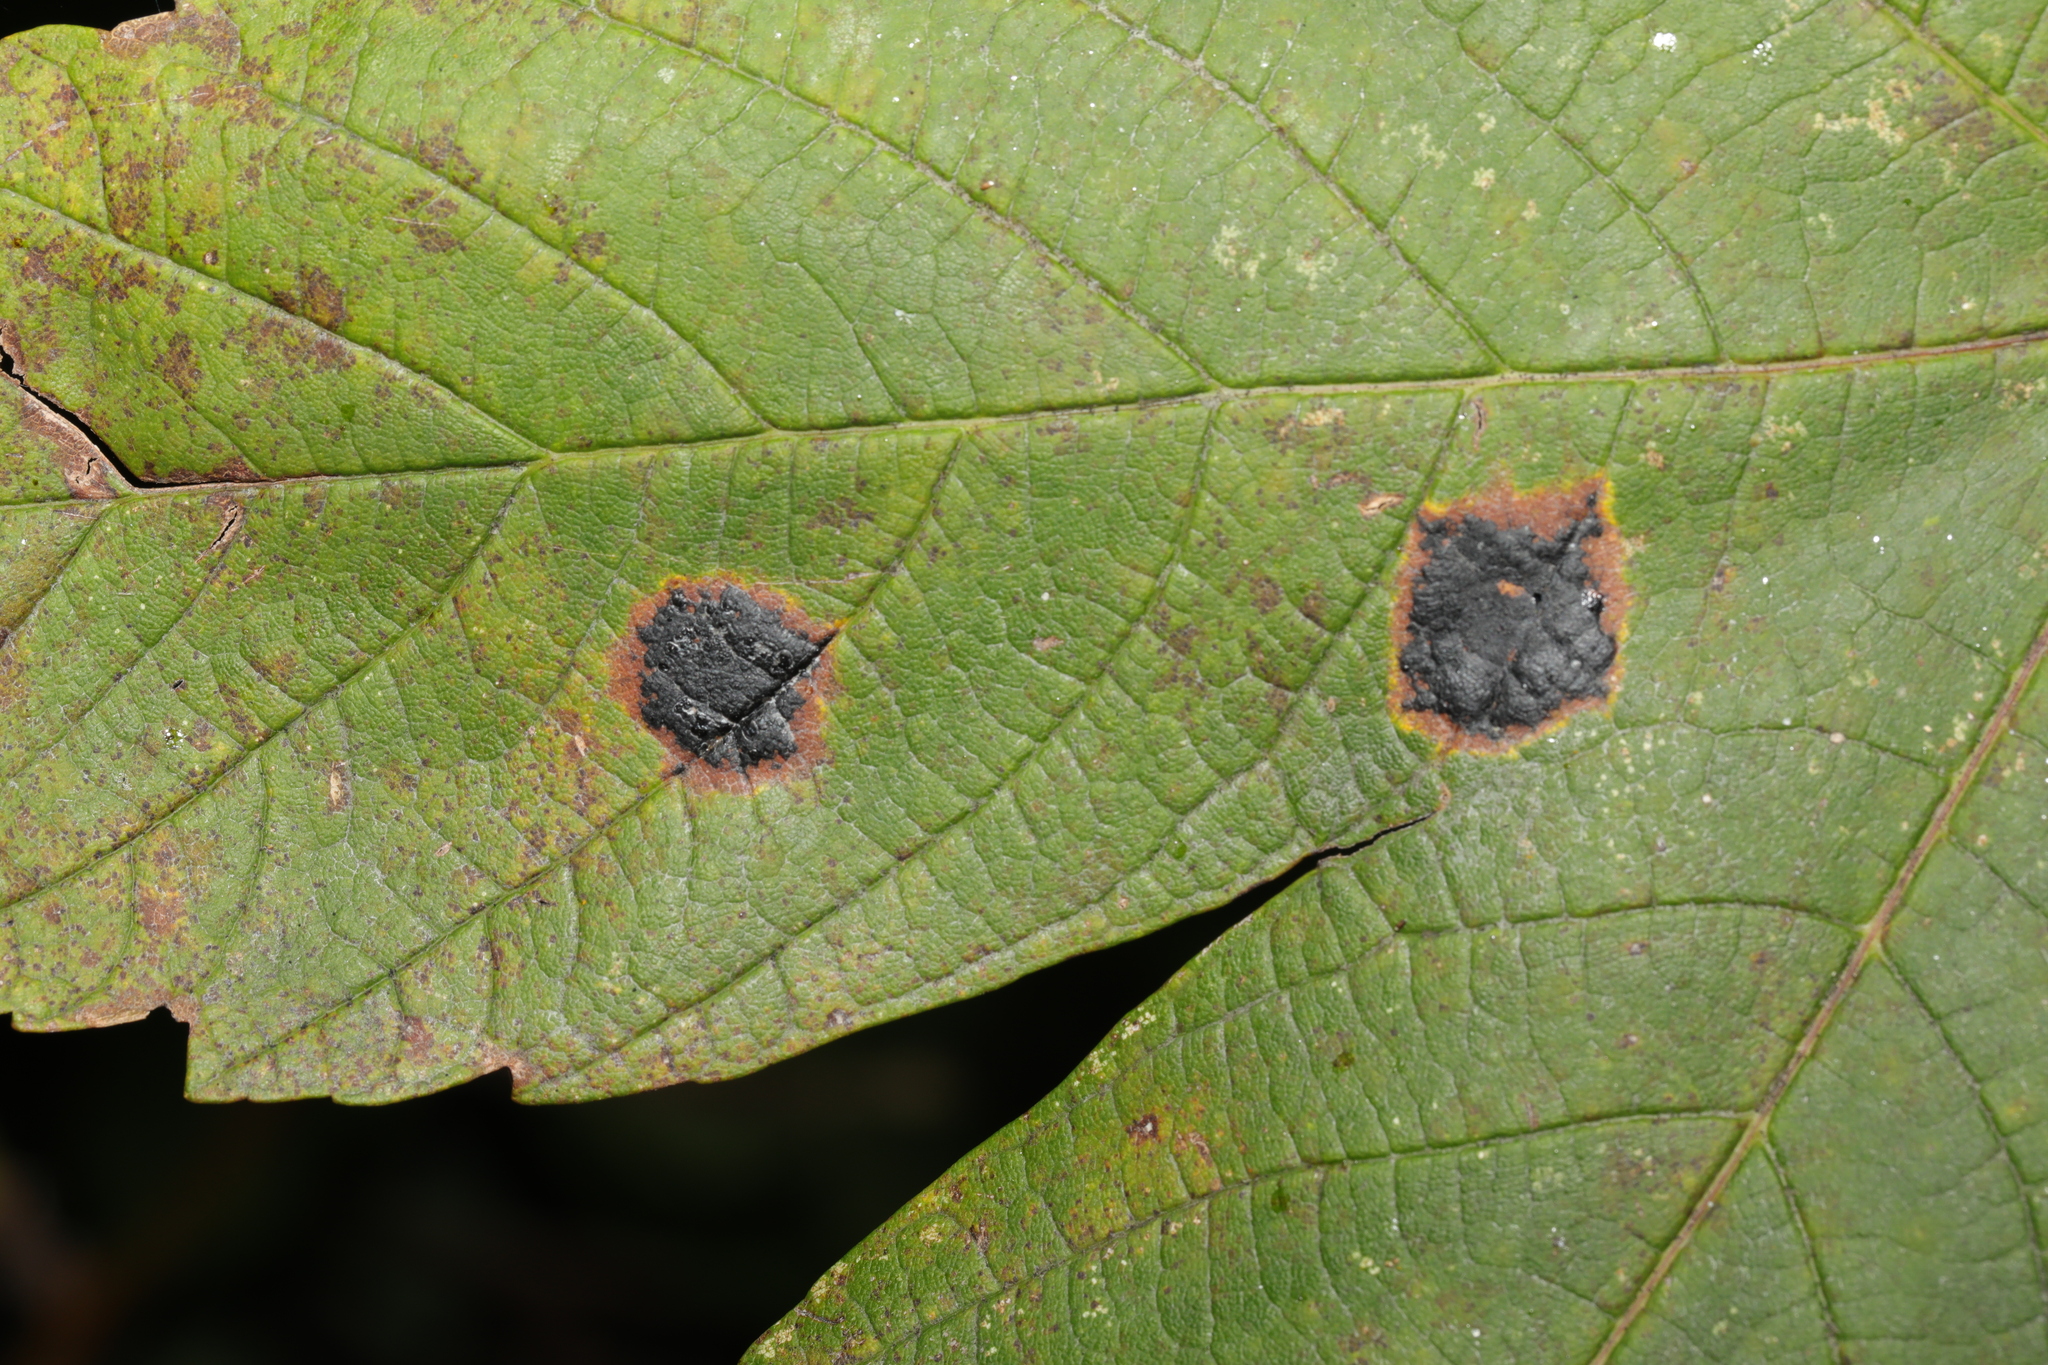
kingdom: Fungi
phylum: Ascomycota
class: Leotiomycetes
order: Rhytismatales
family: Rhytismataceae
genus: Rhytisma
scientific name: Rhytisma acerinum
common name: European tar spot
